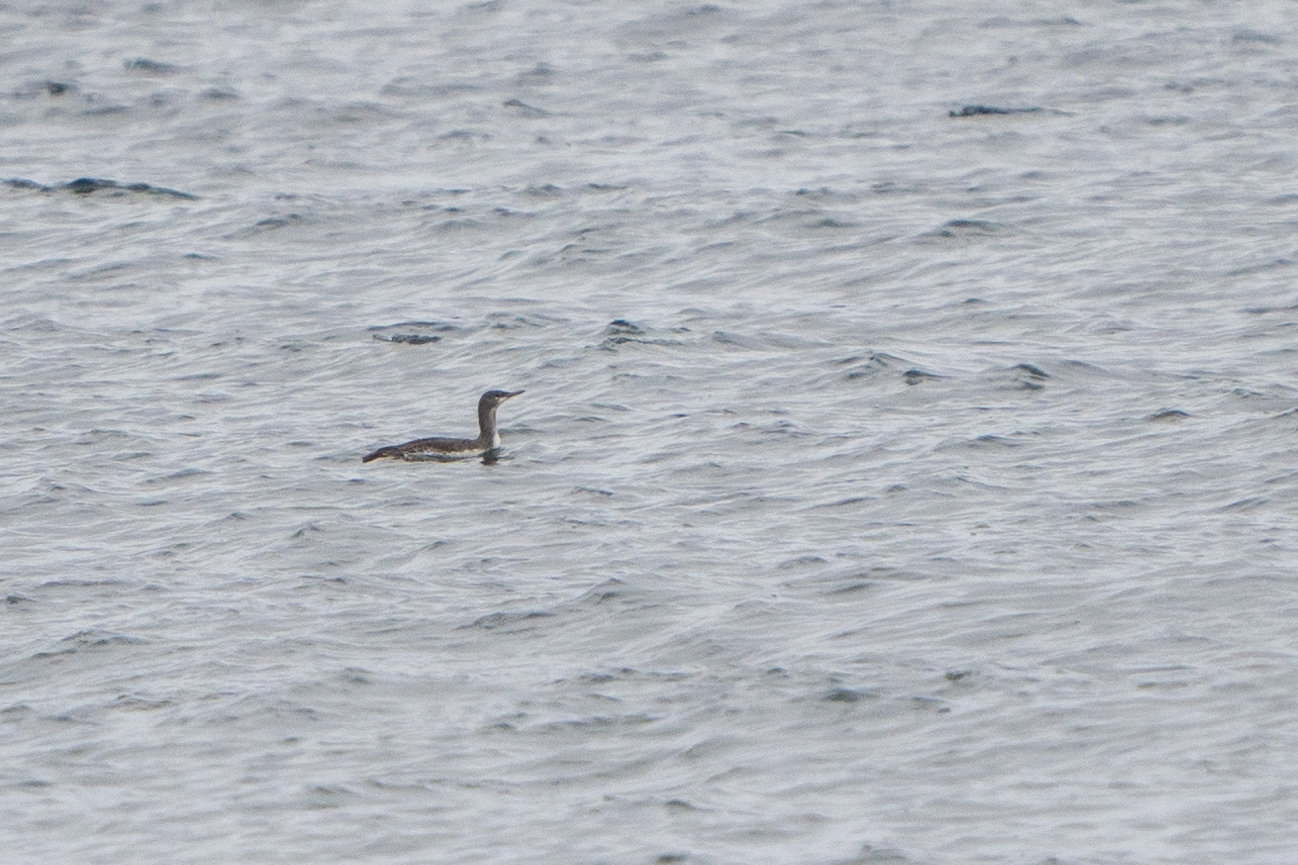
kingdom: Animalia
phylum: Chordata
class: Aves
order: Gaviiformes
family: Gaviidae
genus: Gavia
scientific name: Gavia stellata
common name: Red-throated loon
